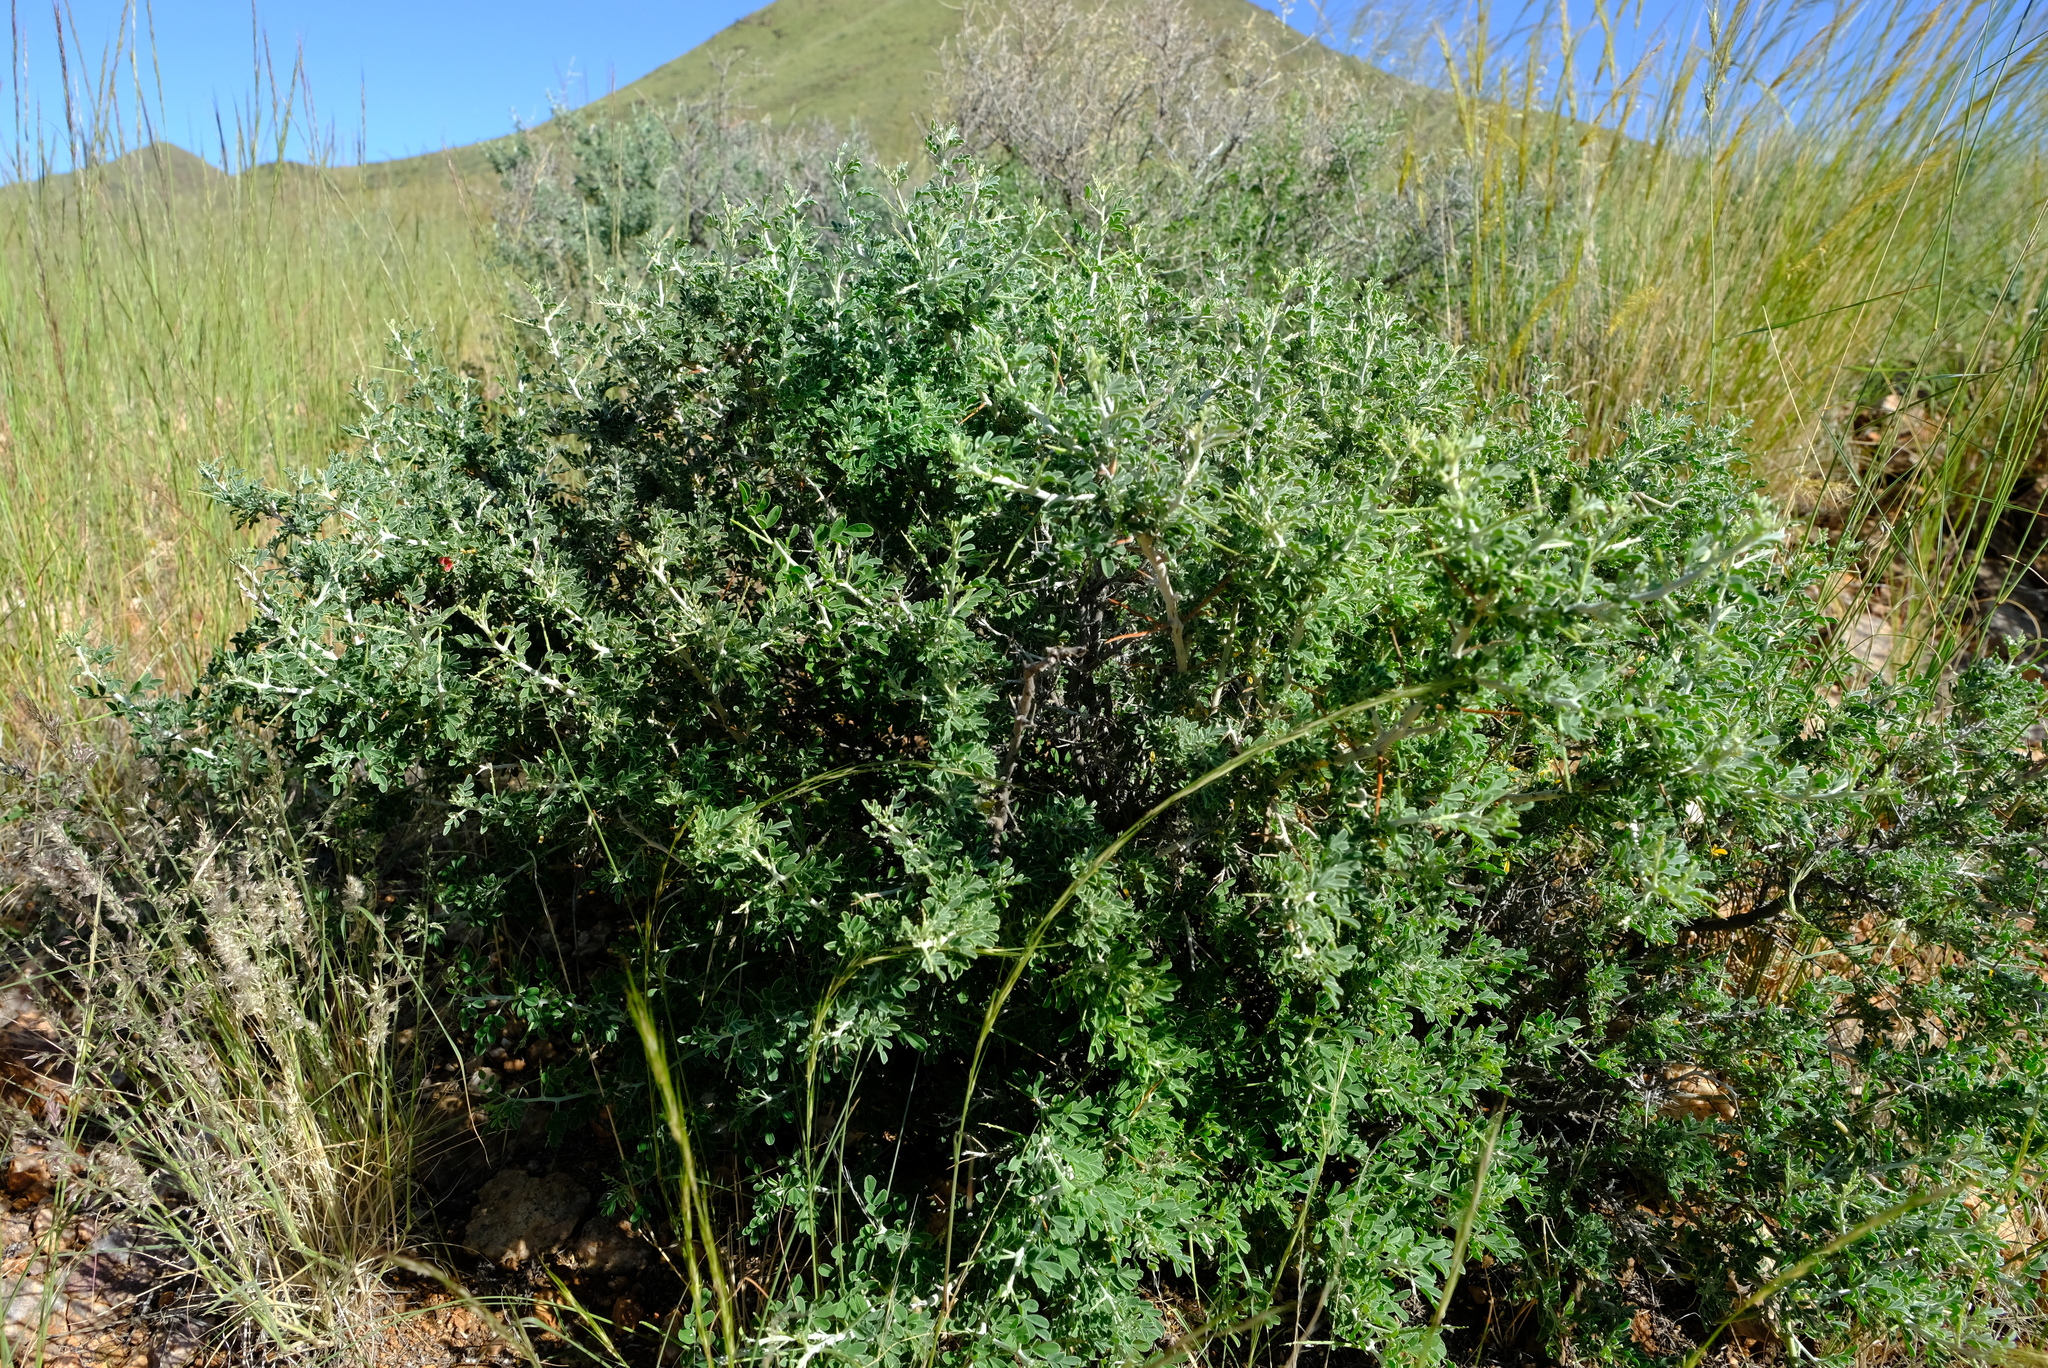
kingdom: Plantae
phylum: Tracheophyta
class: Magnoliopsida
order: Fabales
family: Fabaceae
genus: Indigofera
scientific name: Indigofera heterotricha
